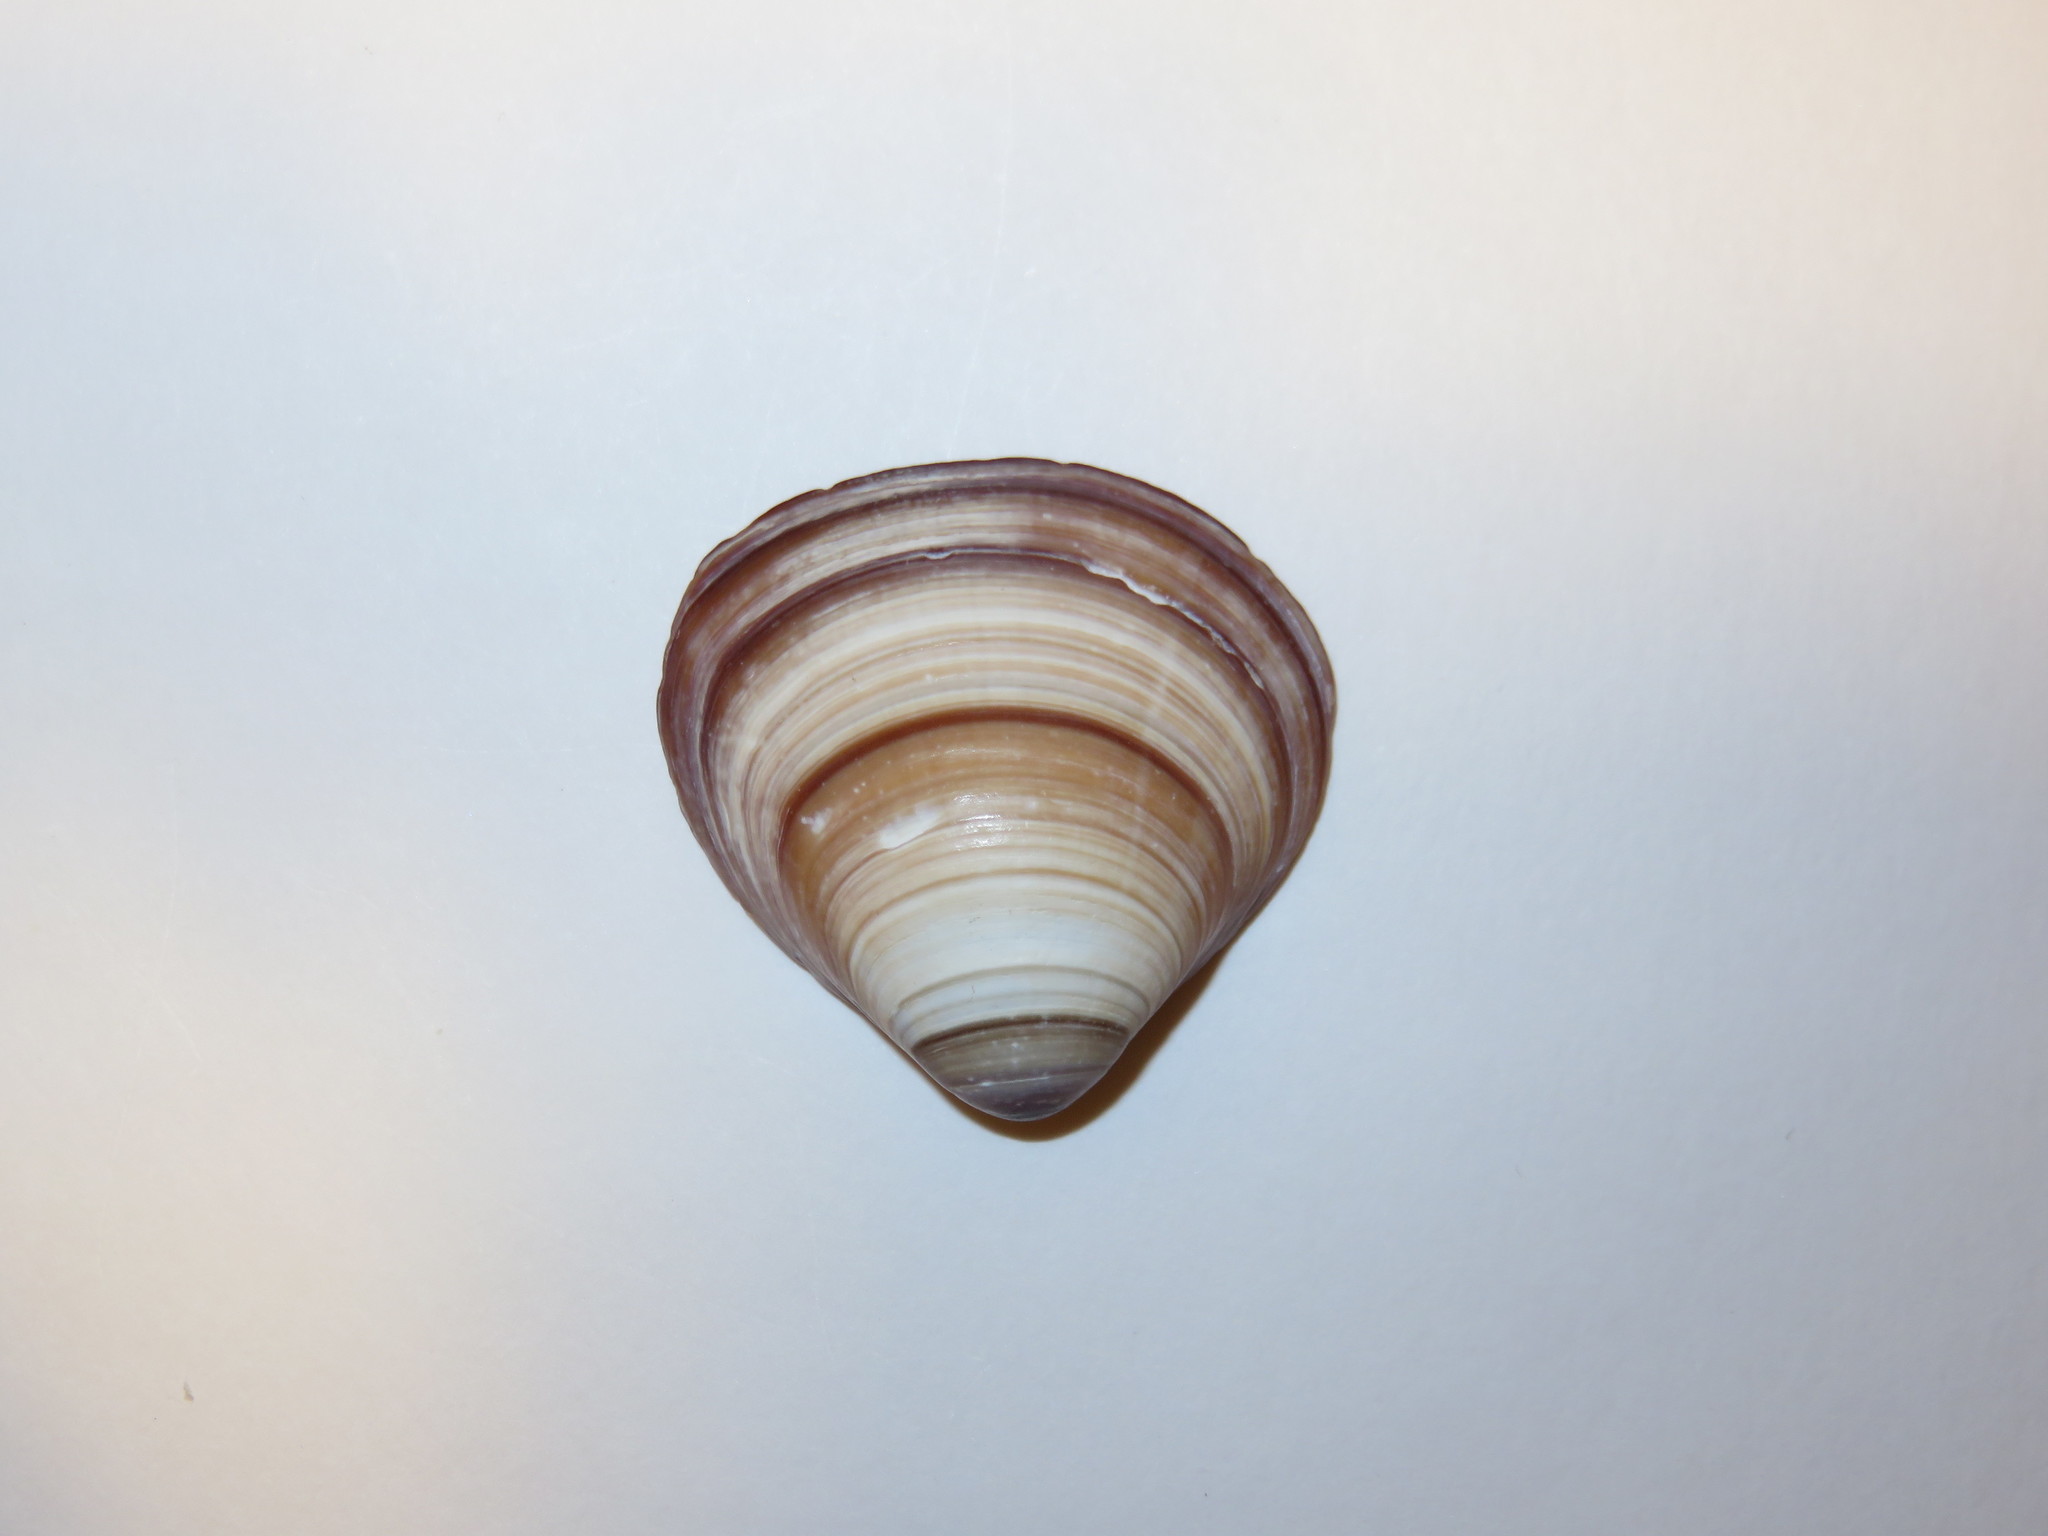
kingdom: Animalia
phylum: Mollusca
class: Bivalvia
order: Venerida
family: Cyrenidae
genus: Corbicula
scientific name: Corbicula japonica
